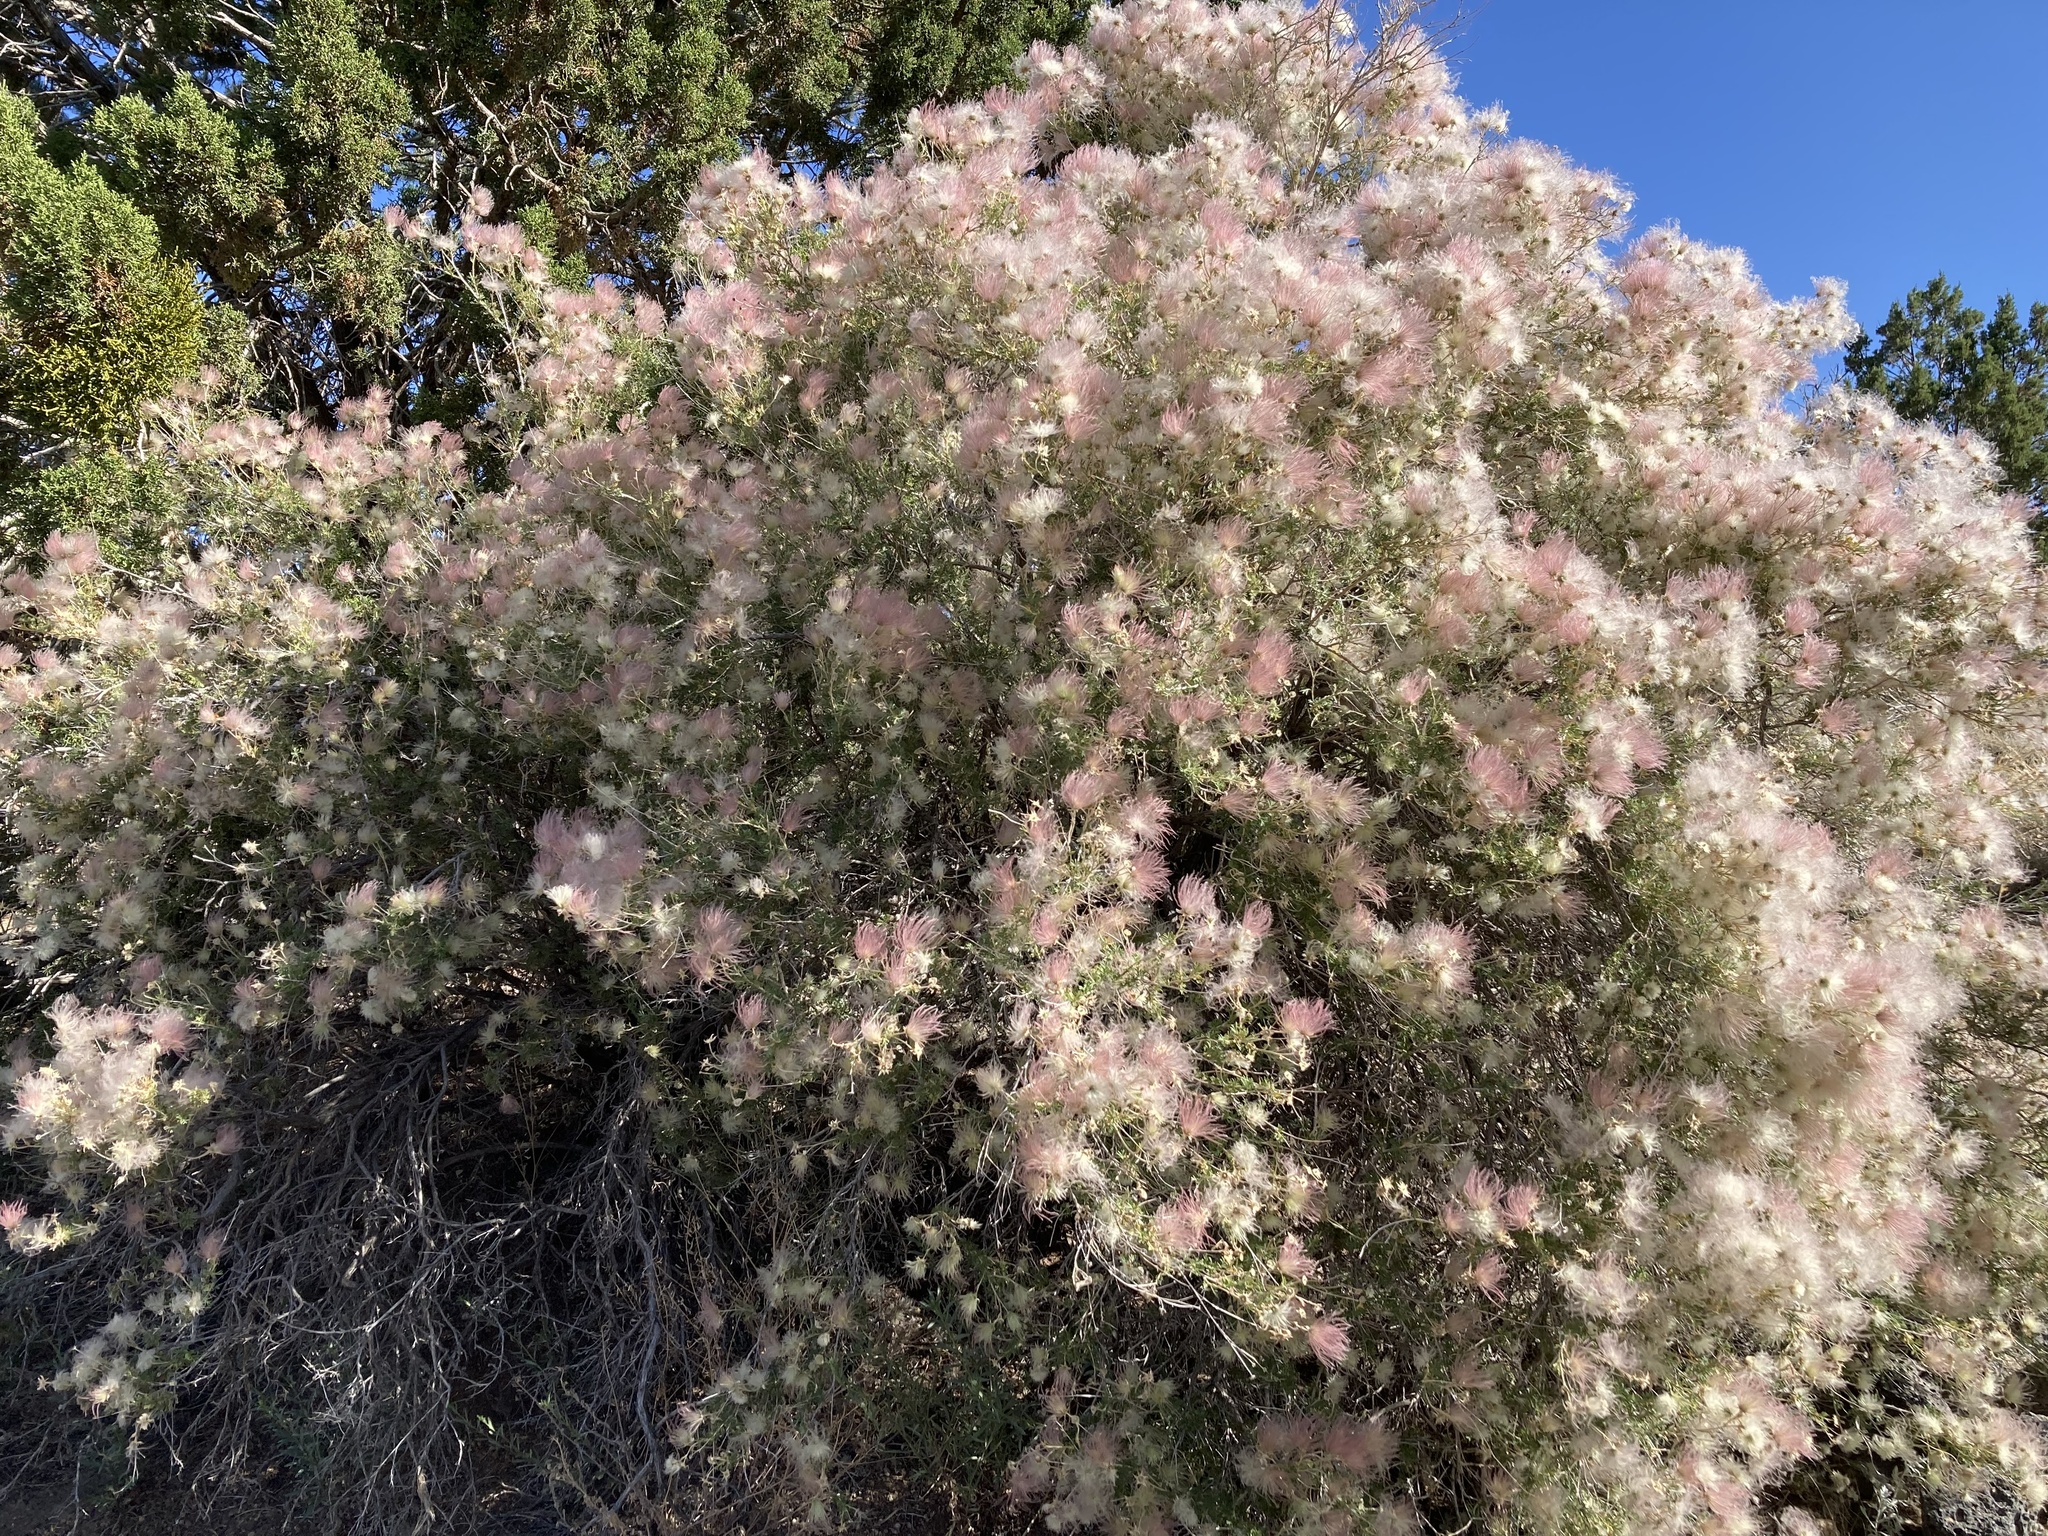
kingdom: Plantae
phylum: Tracheophyta
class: Magnoliopsida
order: Rosales
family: Rosaceae
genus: Fallugia
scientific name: Fallugia paradoxa
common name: Apache-plume
